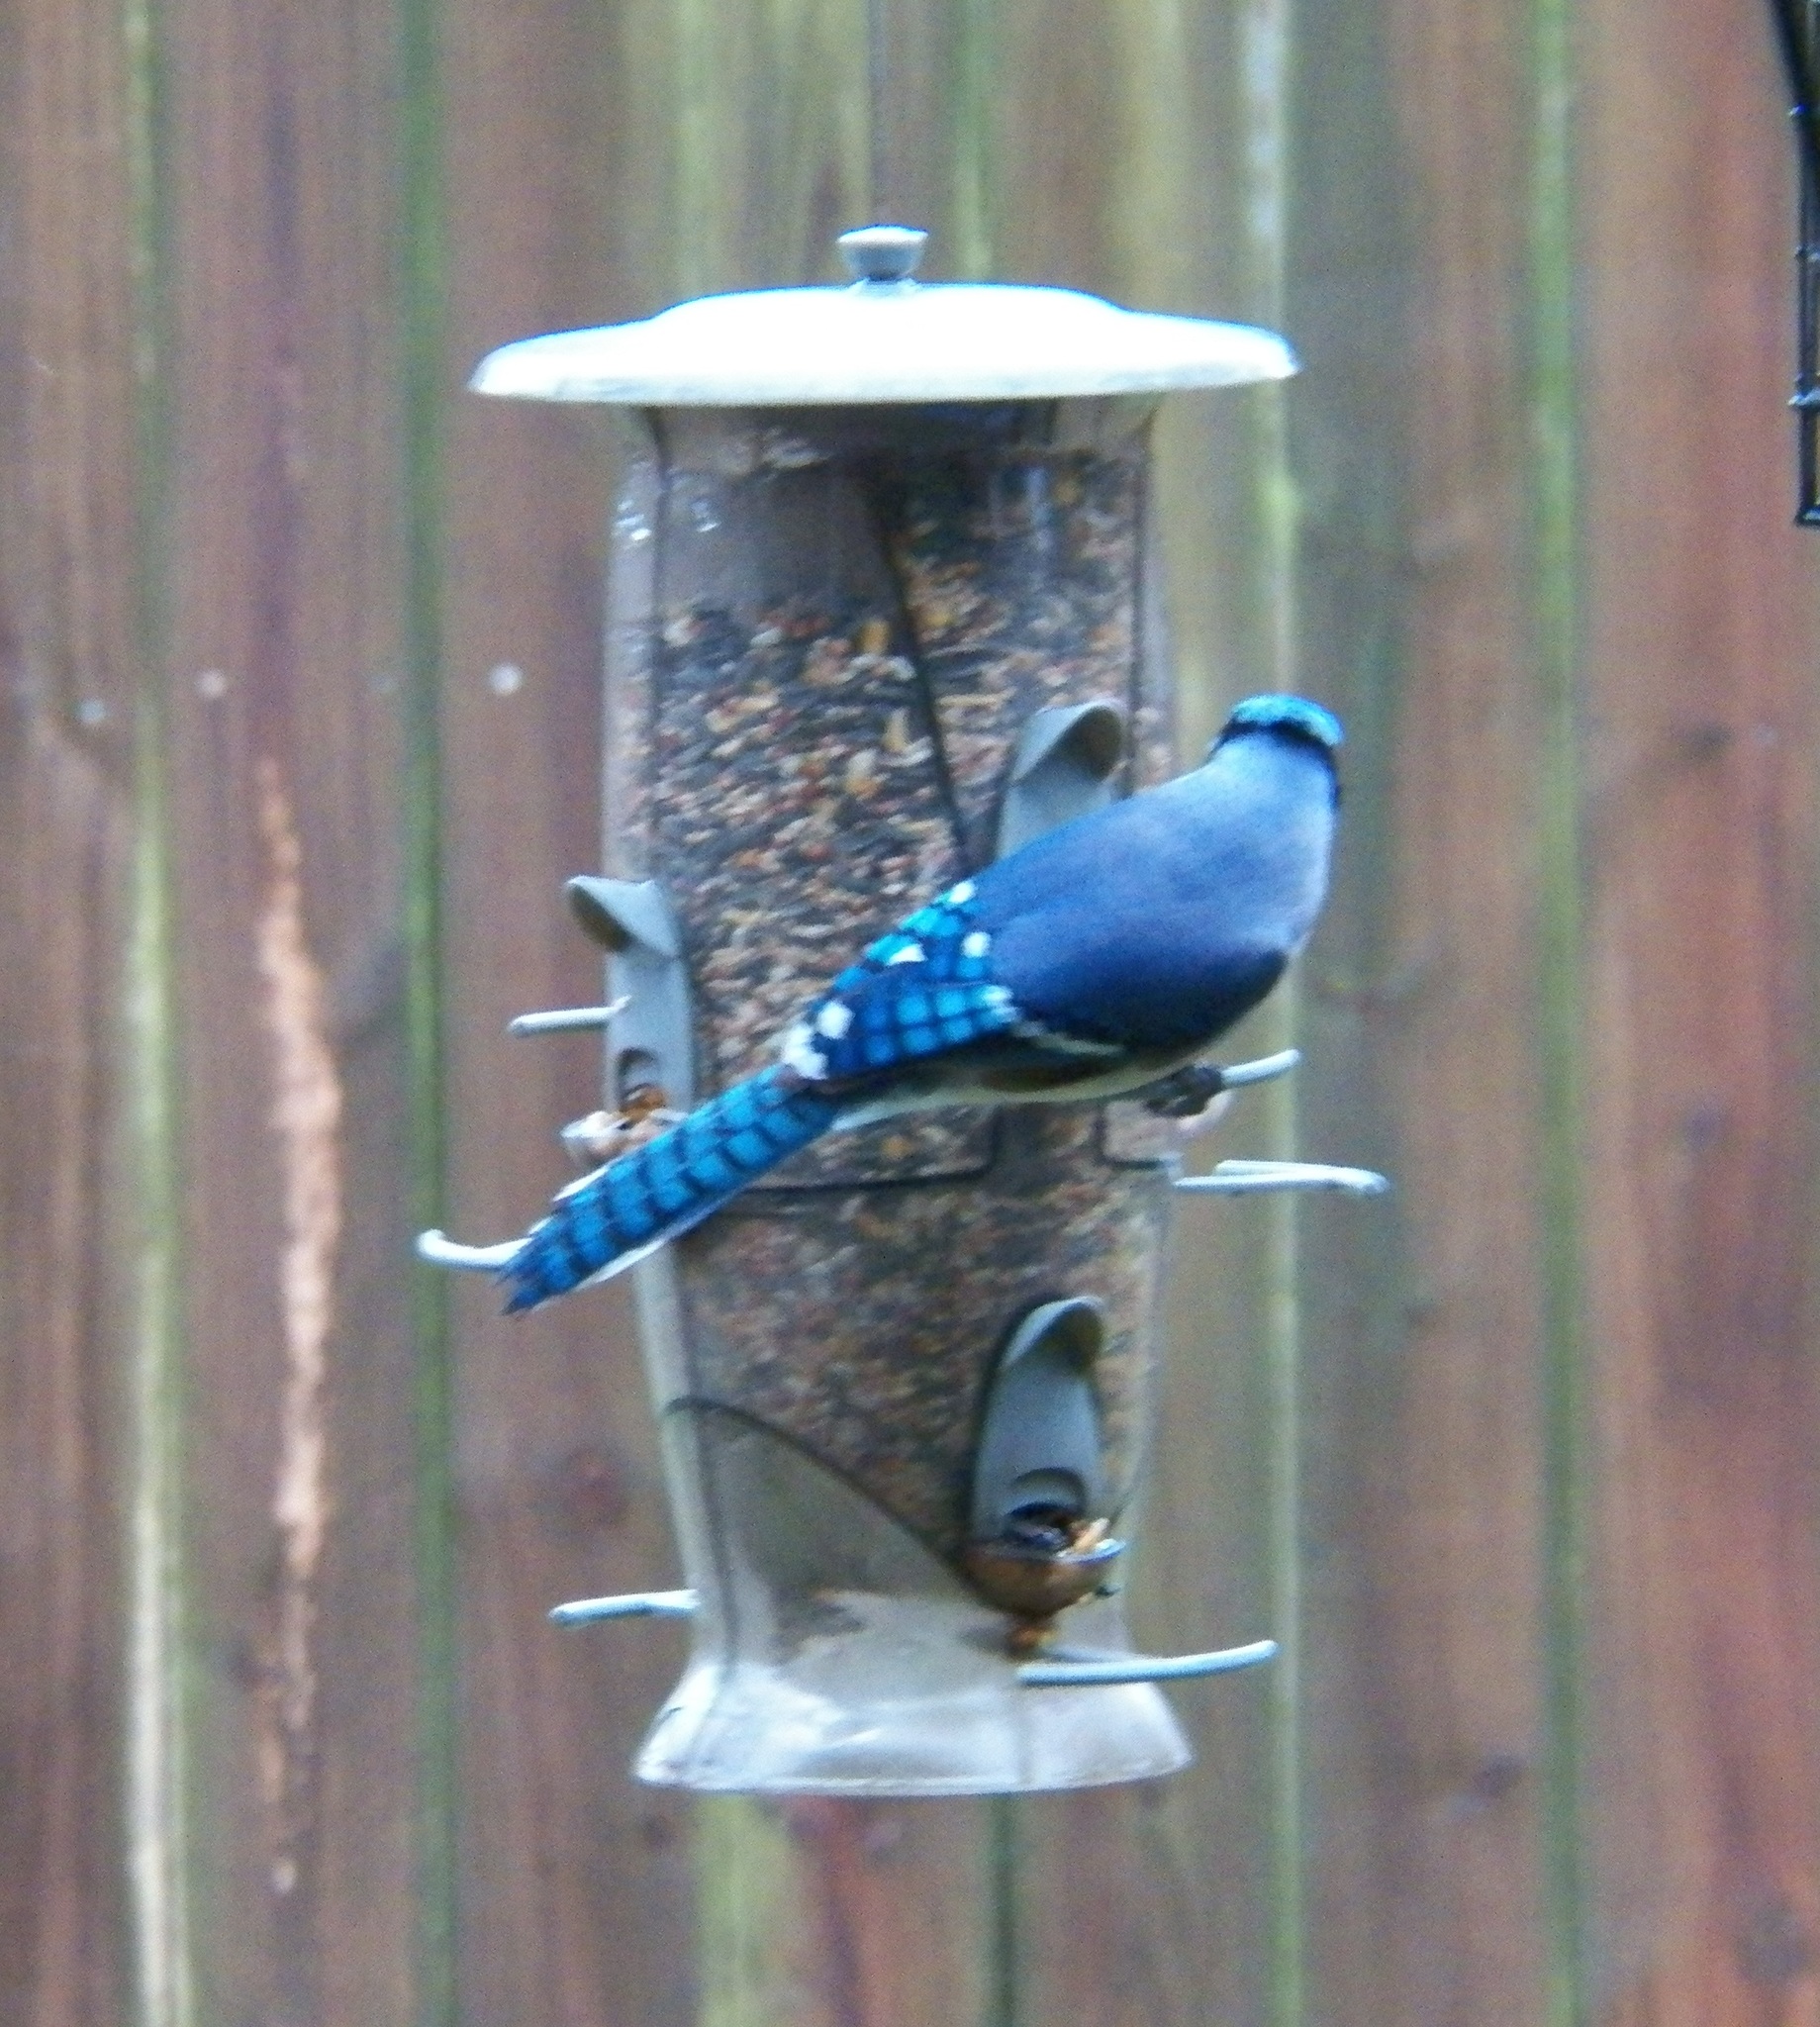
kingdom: Animalia
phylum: Chordata
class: Aves
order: Passeriformes
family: Corvidae
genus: Cyanocitta
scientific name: Cyanocitta cristata
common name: Blue jay
